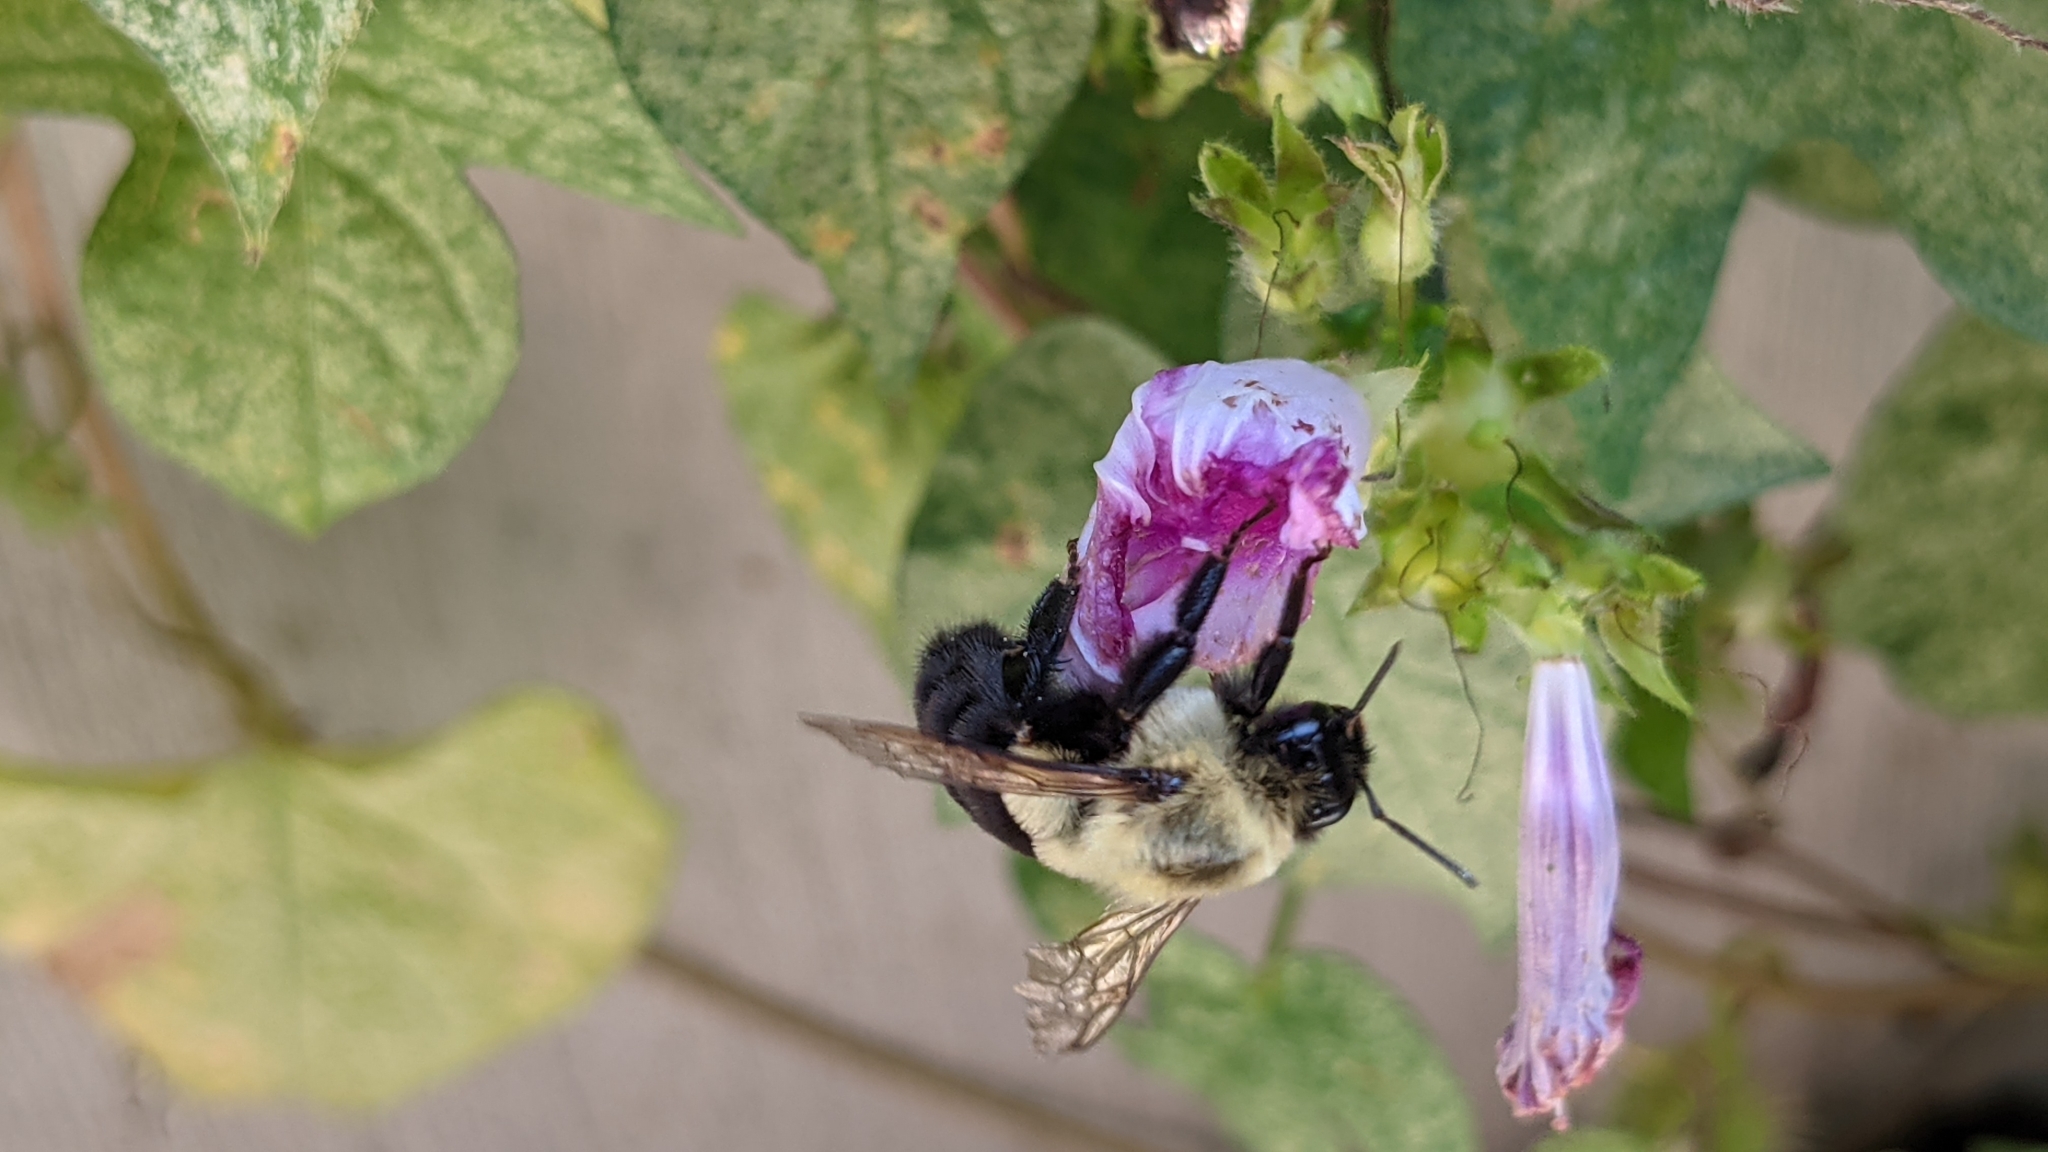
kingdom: Animalia
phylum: Arthropoda
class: Insecta
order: Hymenoptera
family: Apidae
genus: Bombus
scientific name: Bombus impatiens
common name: Common eastern bumble bee
